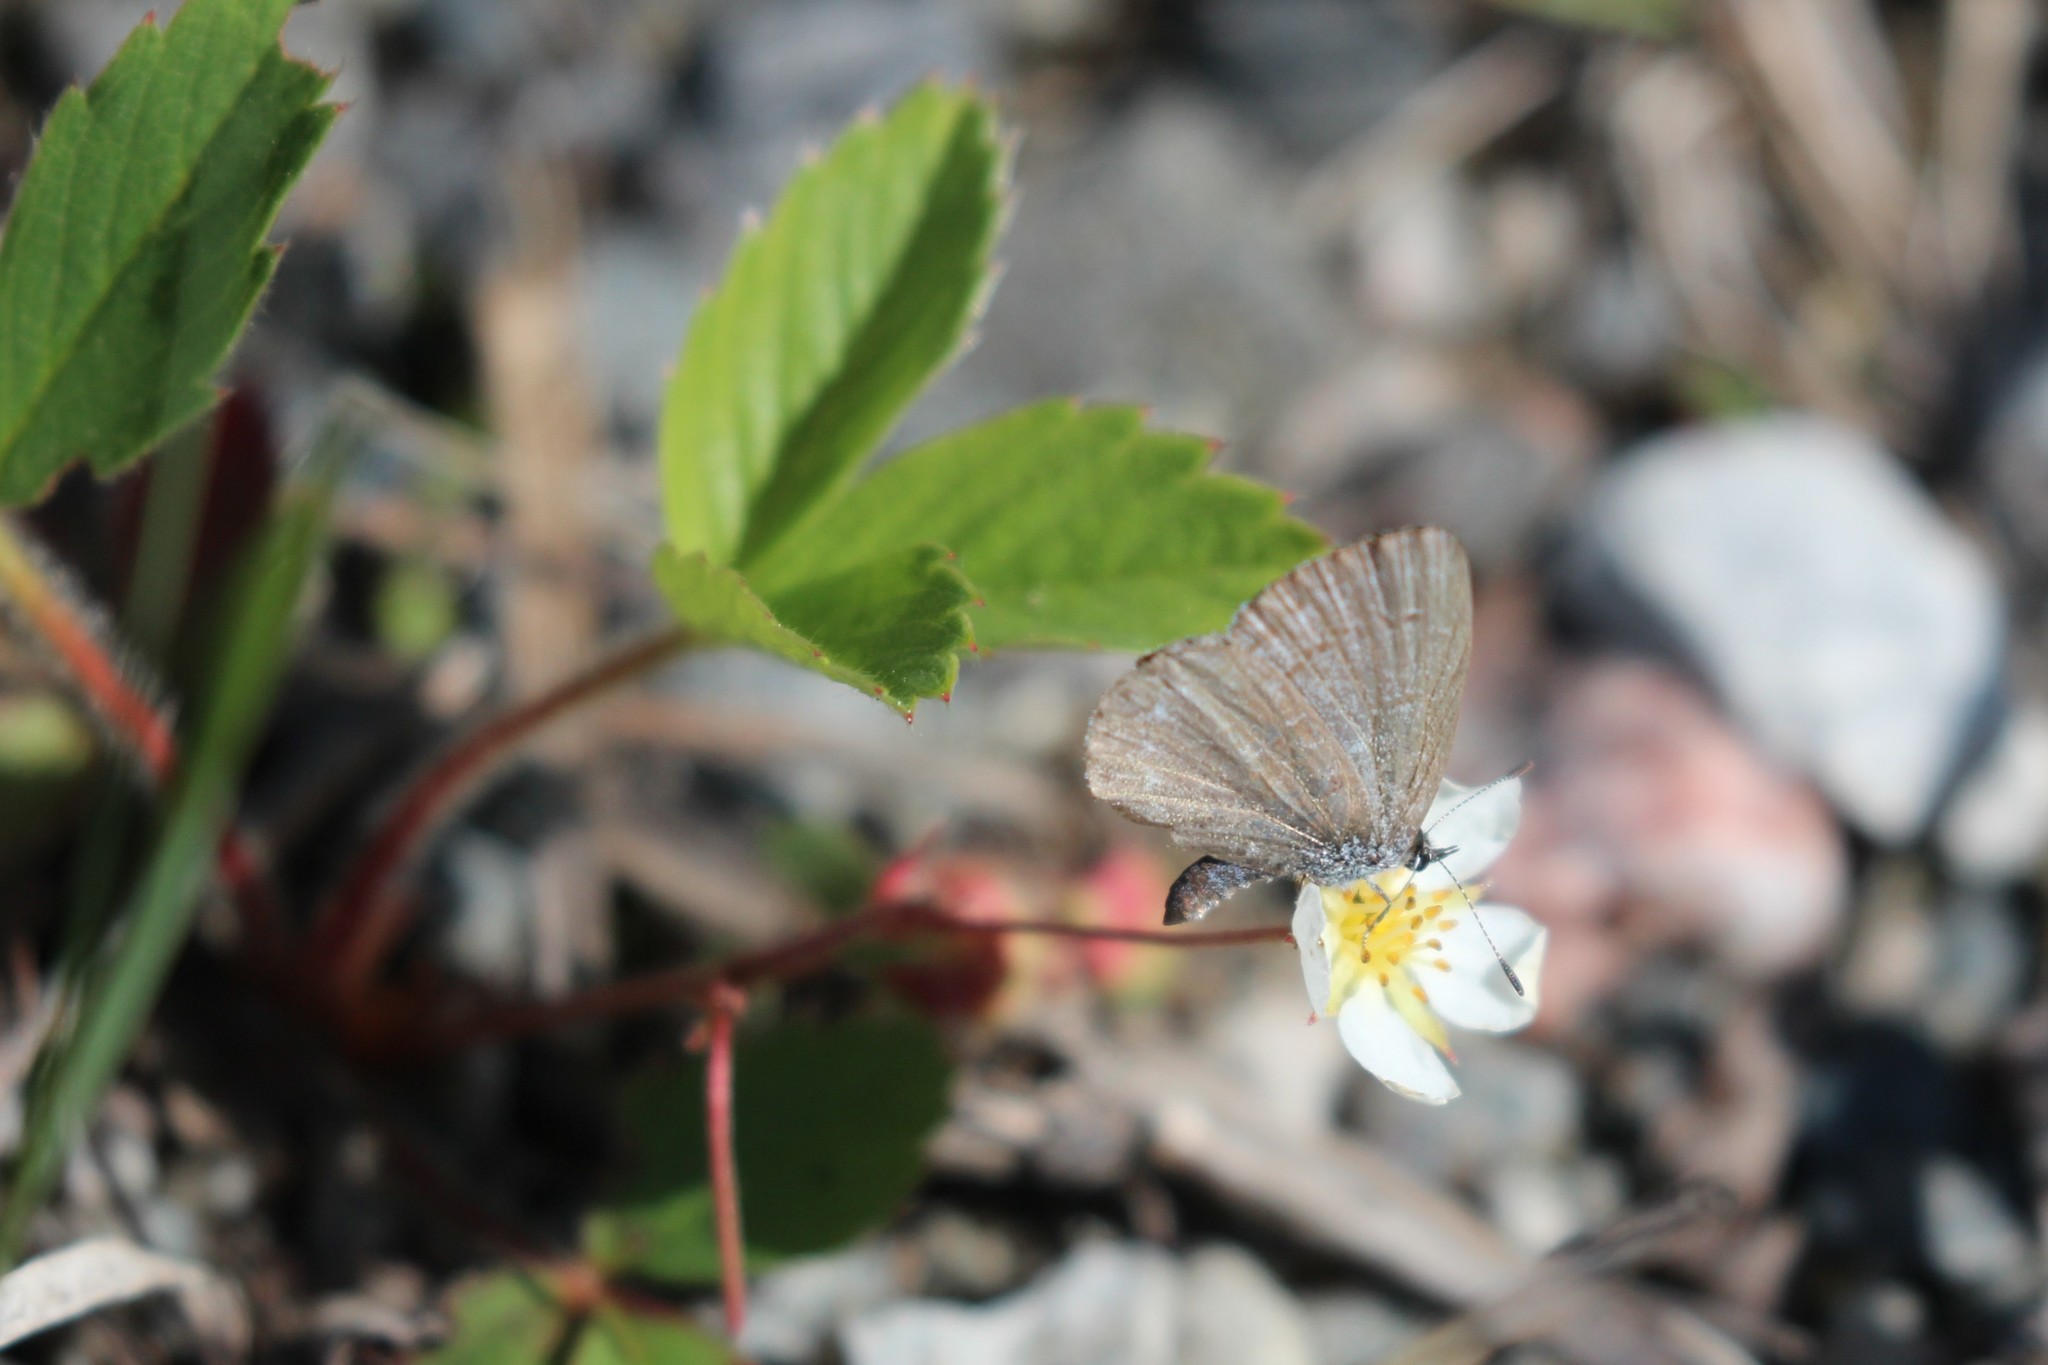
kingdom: Animalia
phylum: Arthropoda
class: Insecta
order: Lepidoptera
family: Lycaenidae
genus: Celastrina
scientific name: Celastrina lucia
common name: Lucia azure
